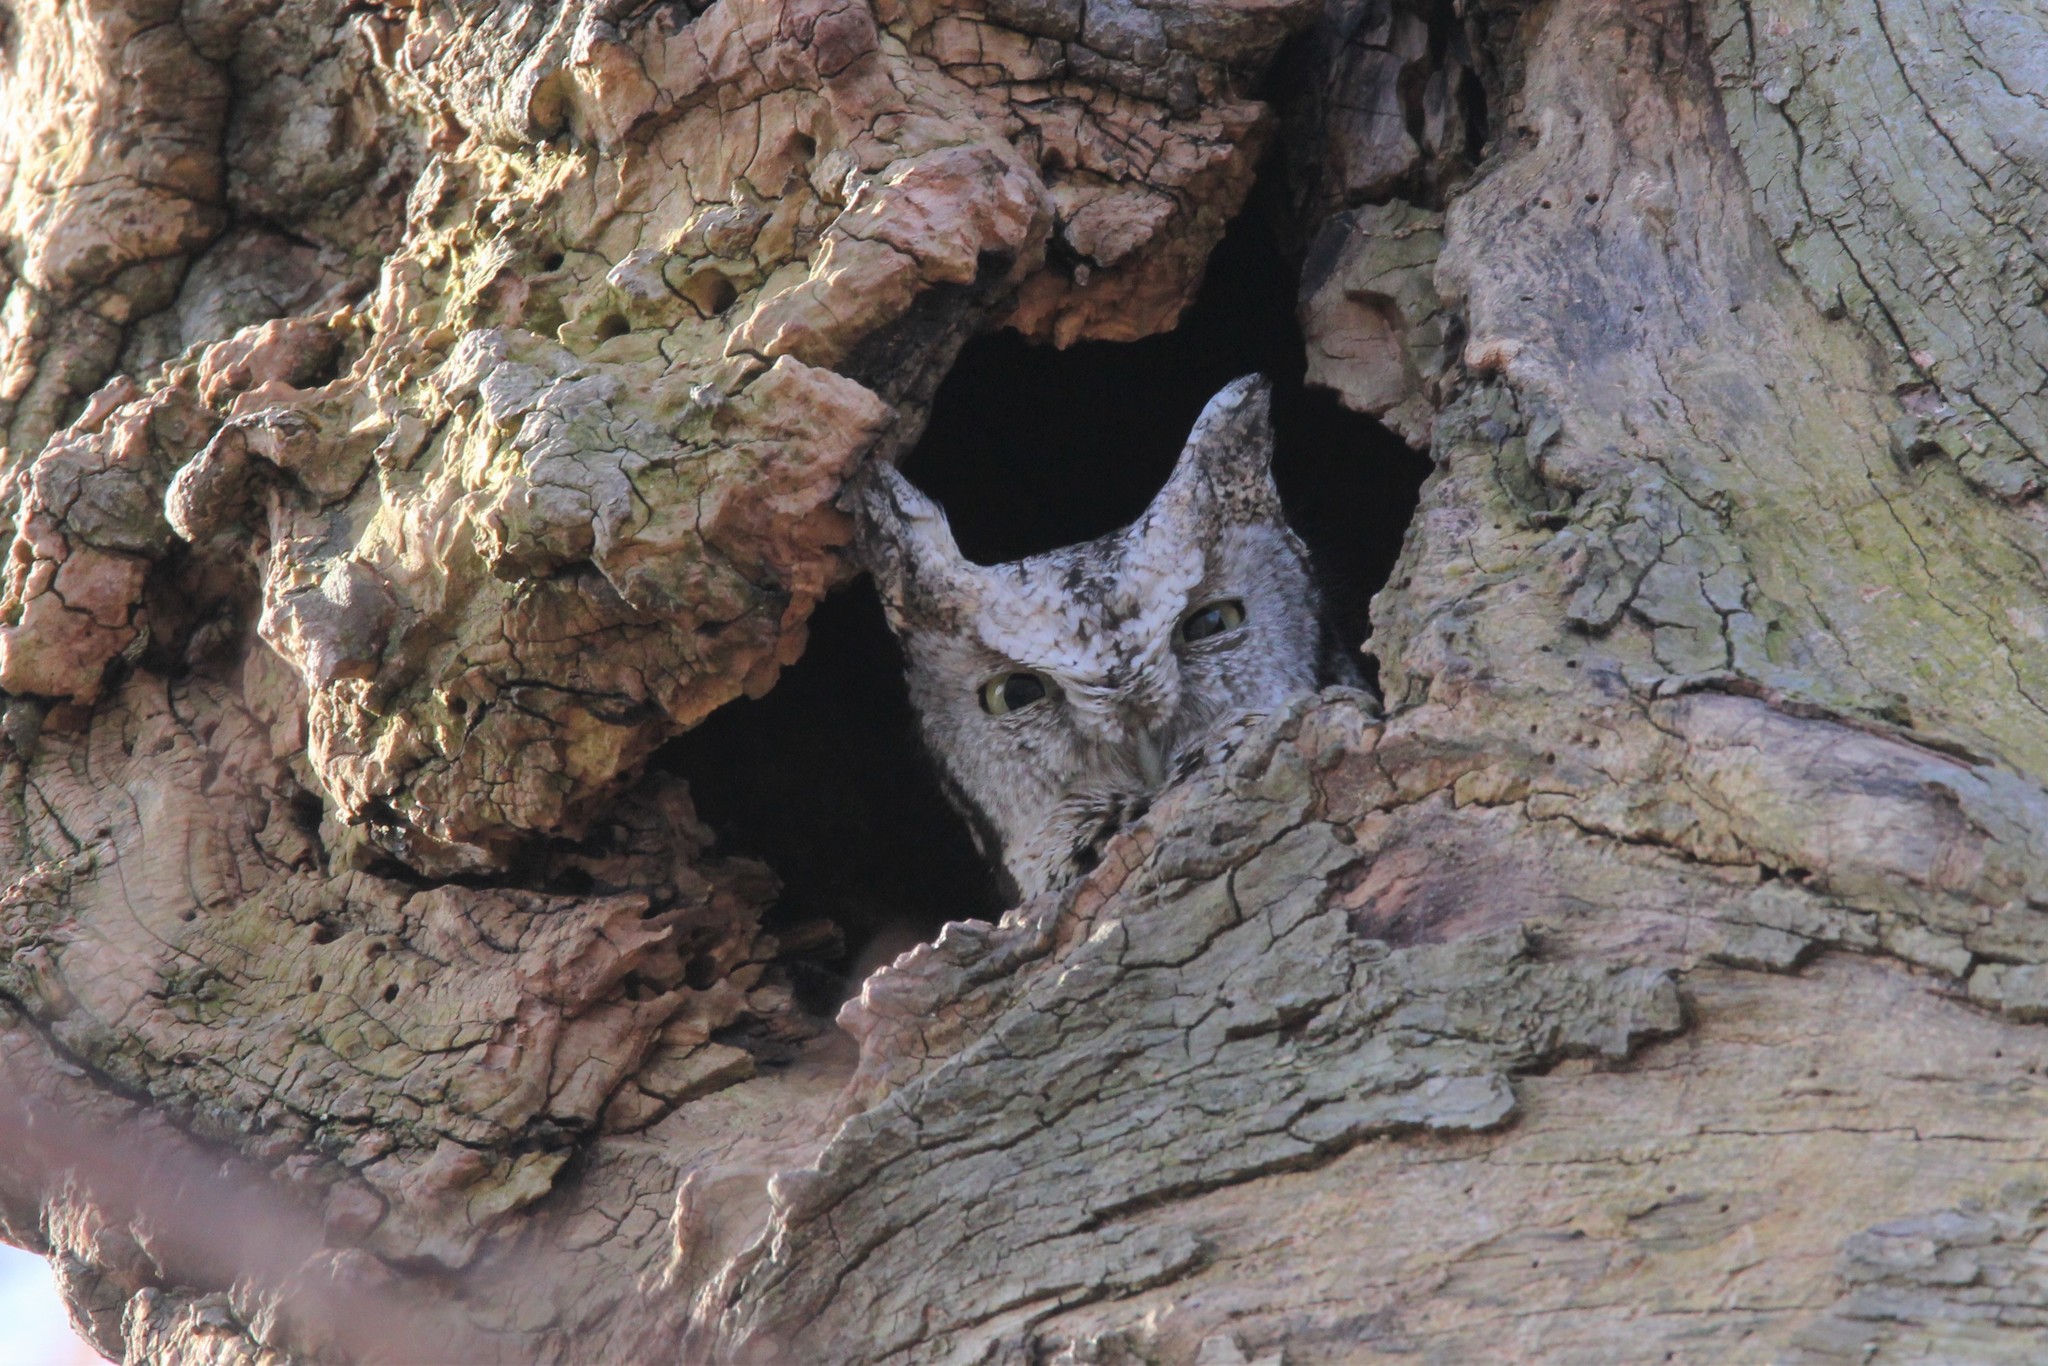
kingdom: Animalia
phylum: Chordata
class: Aves
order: Strigiformes
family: Strigidae
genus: Megascops
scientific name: Megascops asio
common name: Eastern screech-owl
